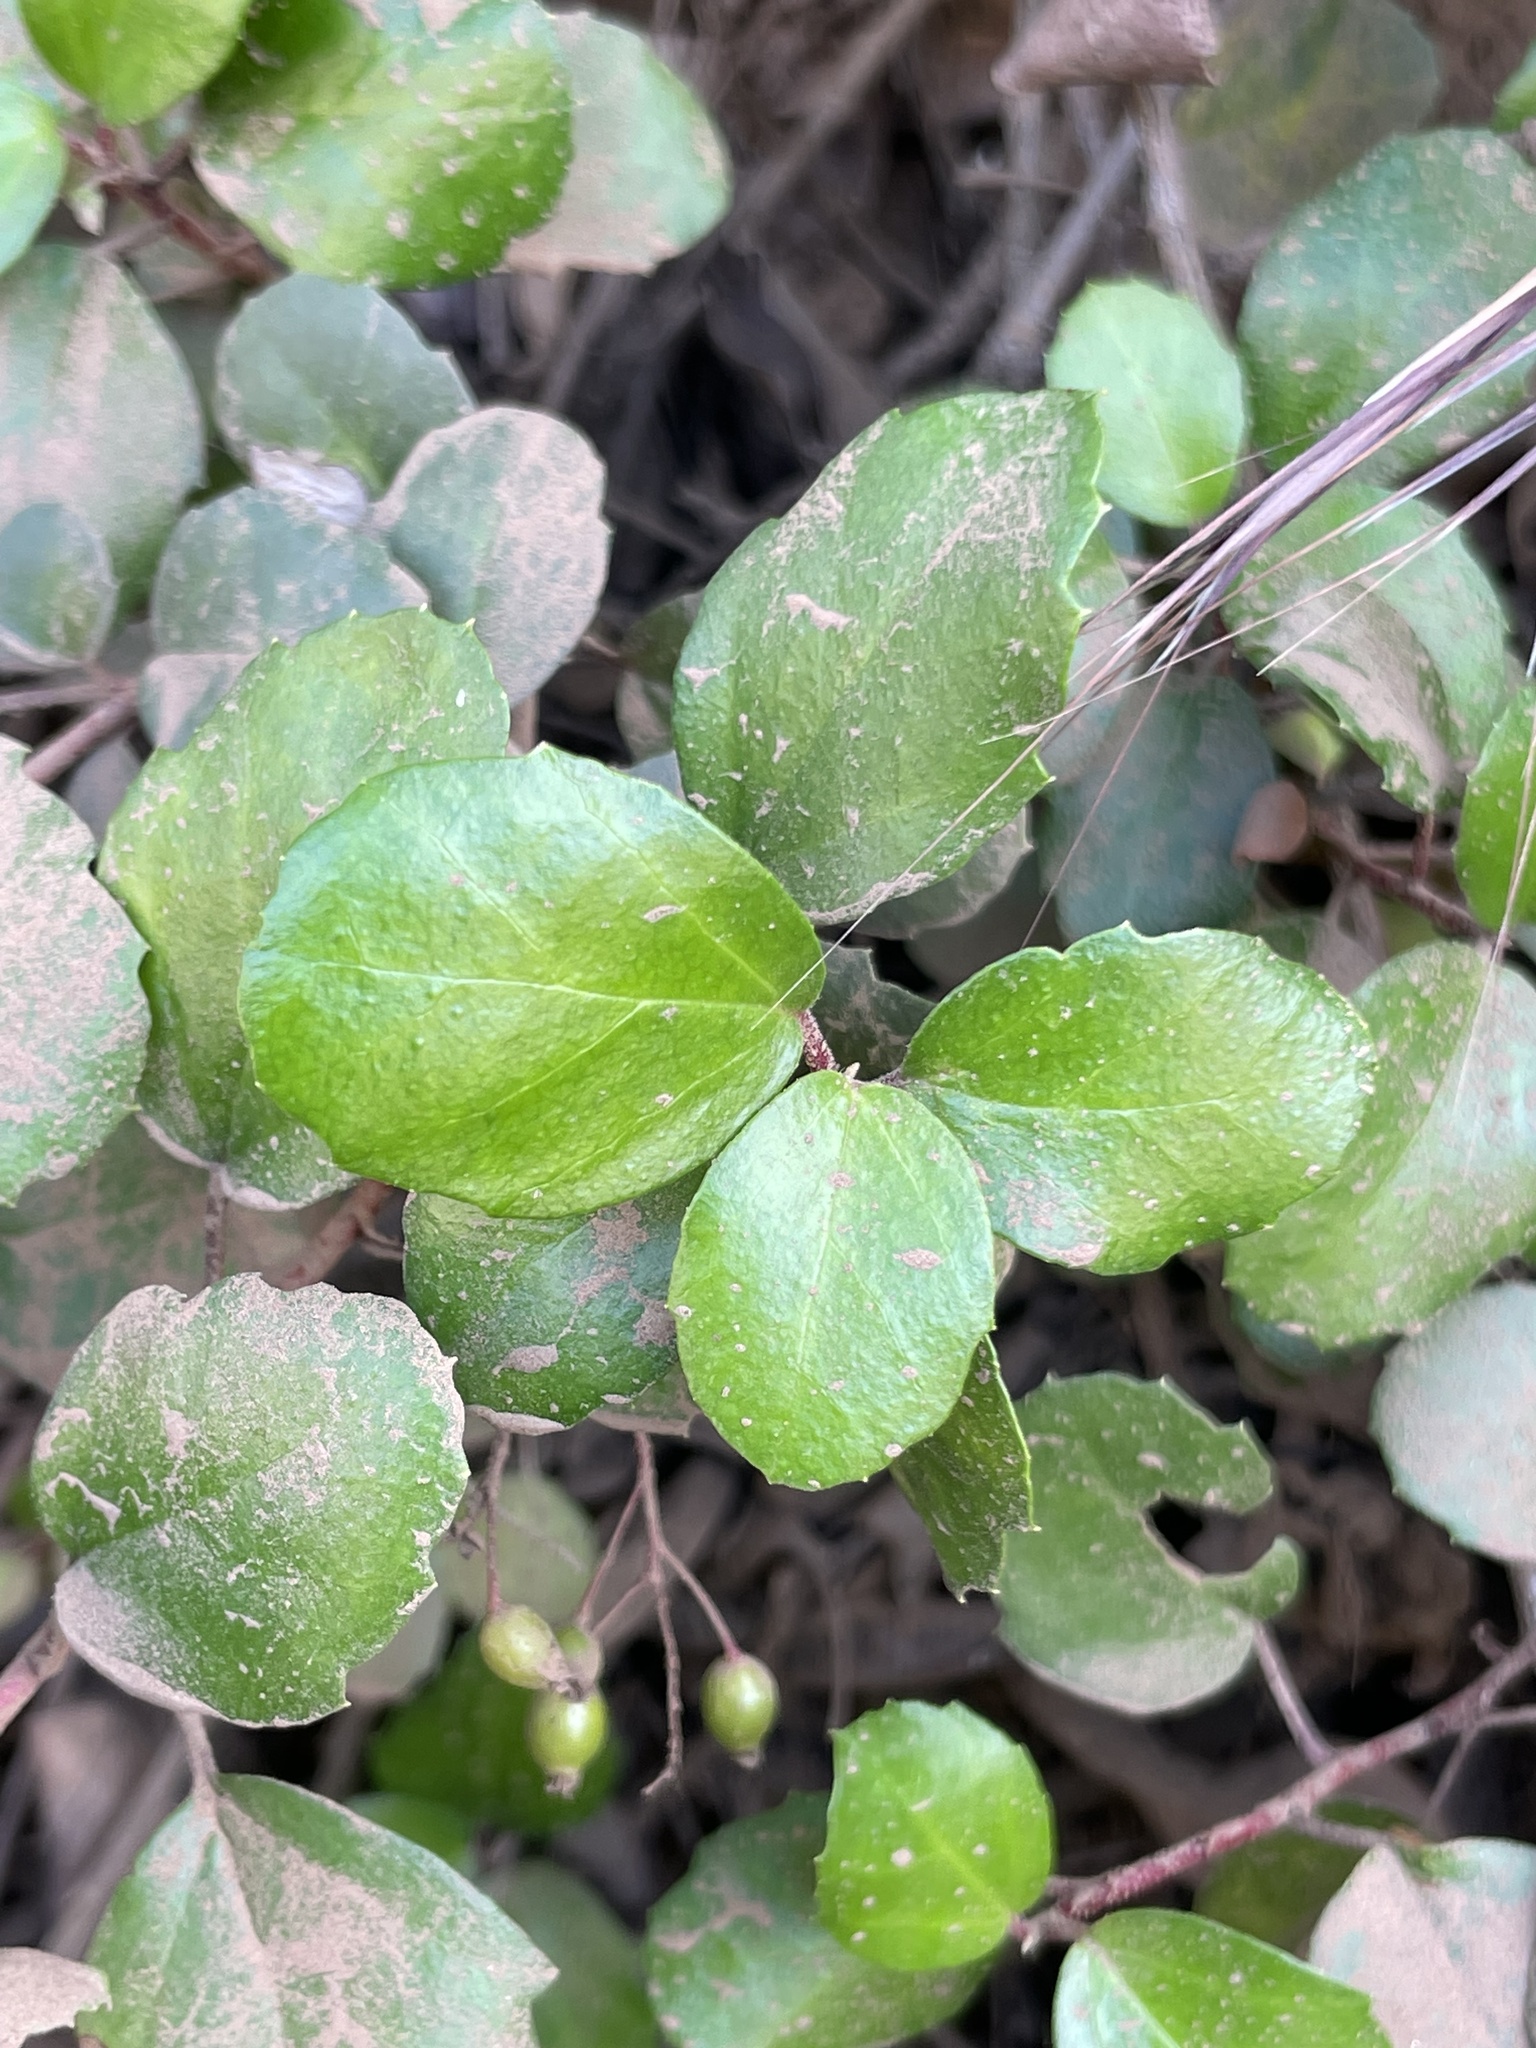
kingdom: Plantae
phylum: Tracheophyta
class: Magnoliopsida
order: Saxifragales
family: Grossulariaceae
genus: Ribes
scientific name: Ribes viburnifolium
